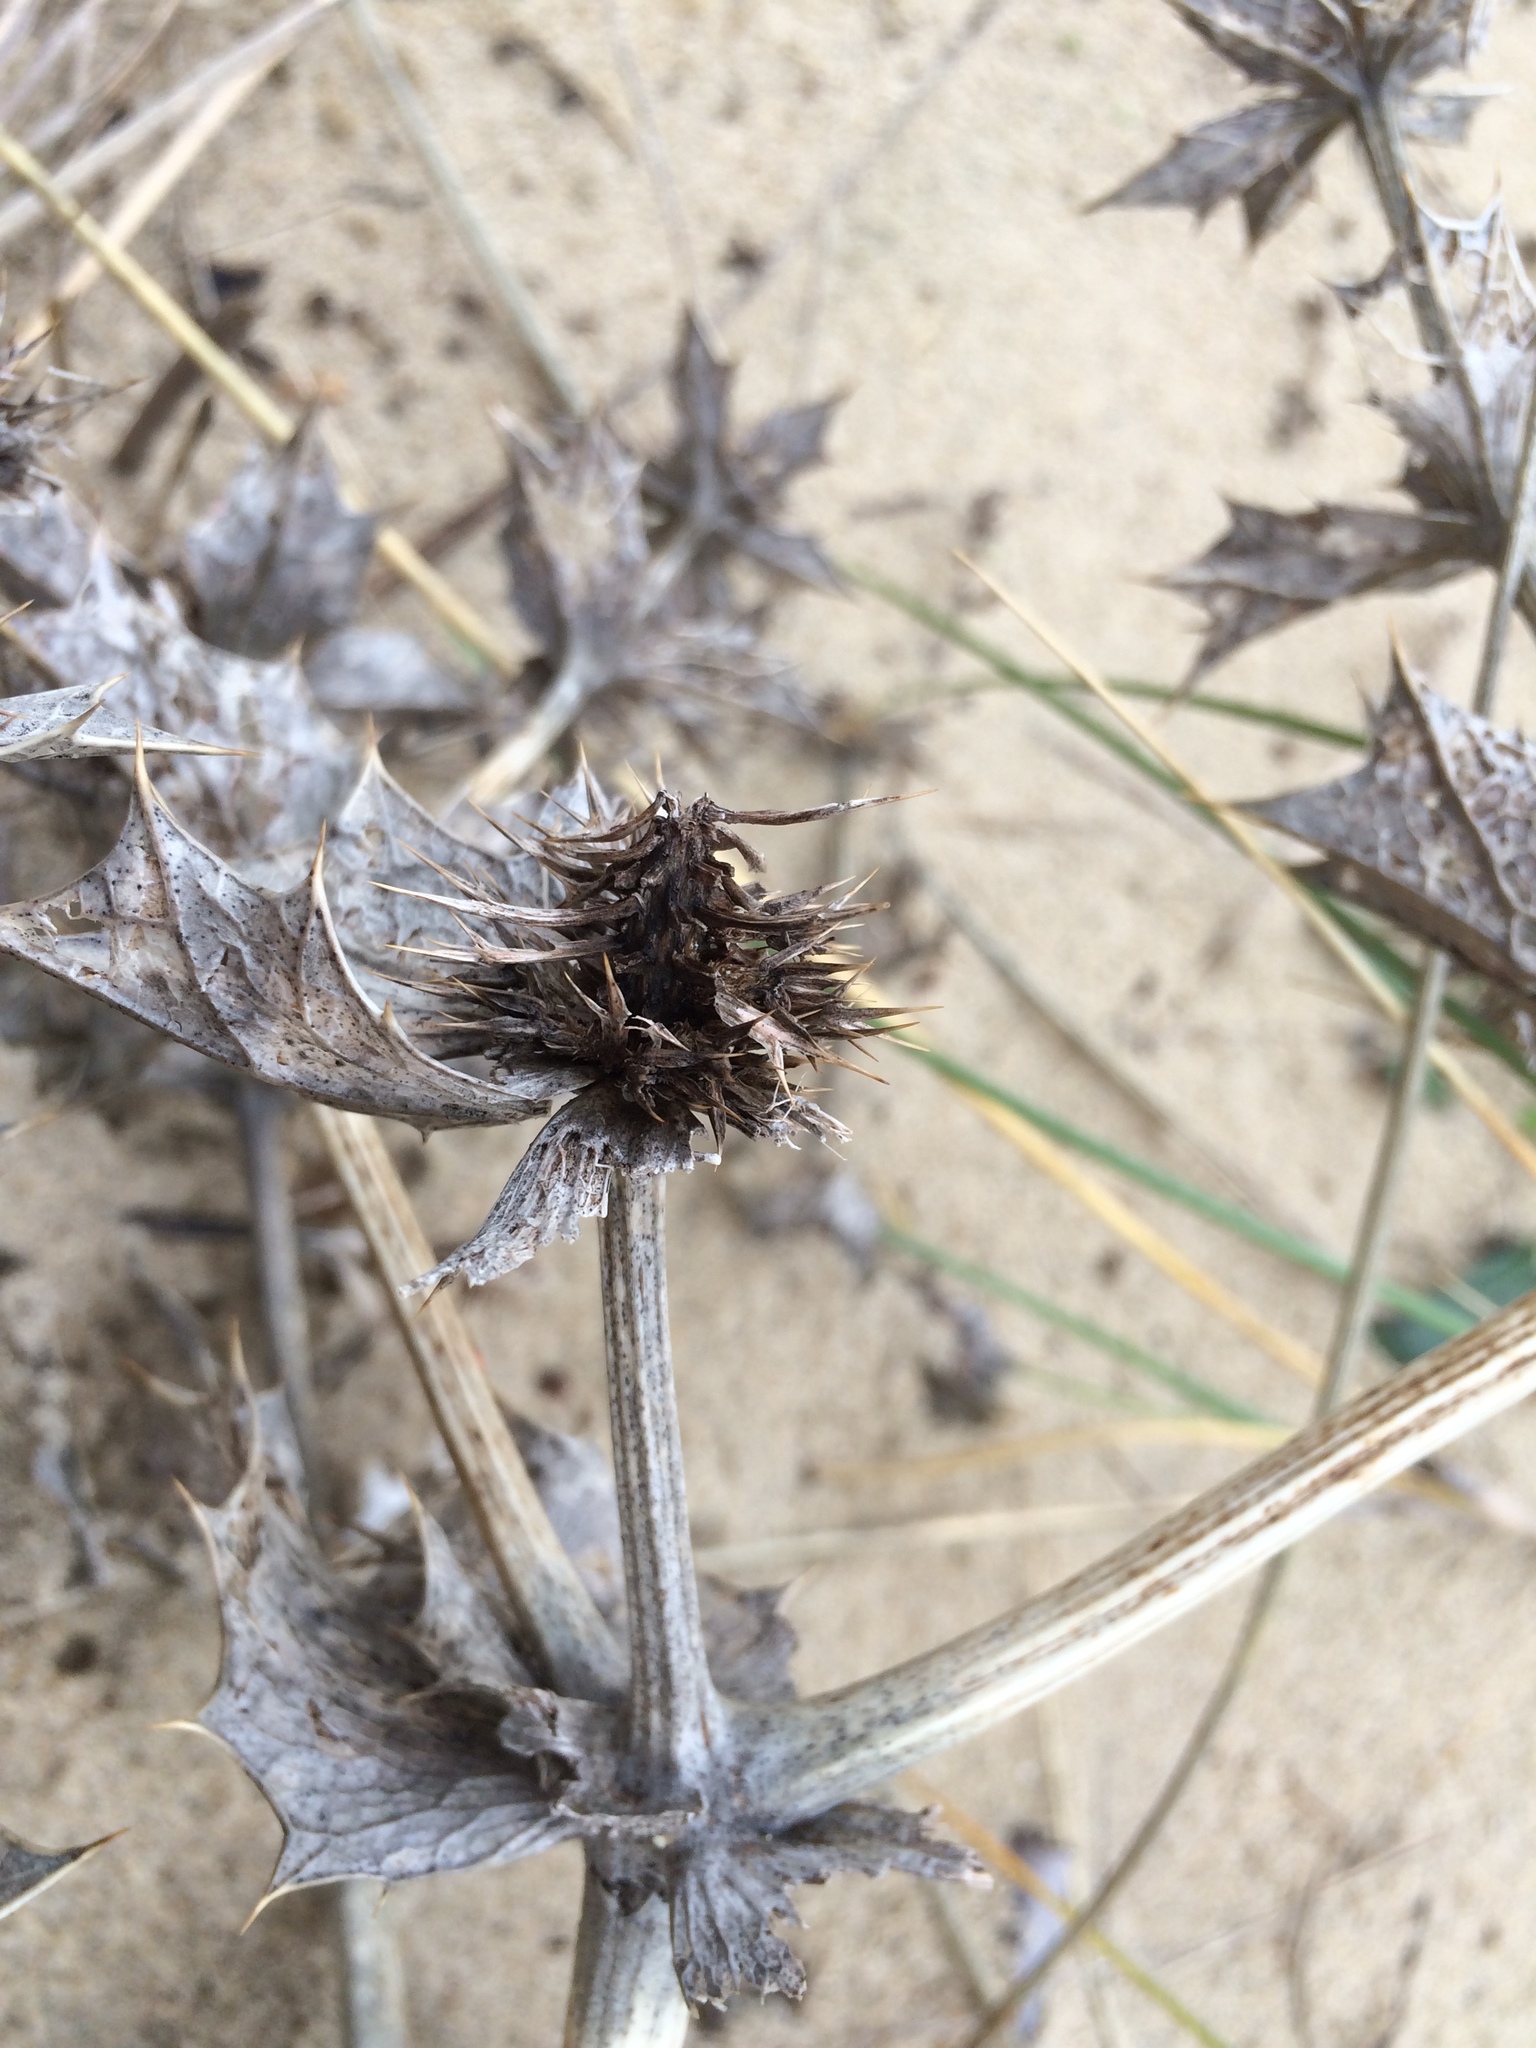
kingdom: Plantae
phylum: Tracheophyta
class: Magnoliopsida
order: Apiales
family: Apiaceae
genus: Eryngium
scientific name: Eryngium maritimum
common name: Sea-holly
